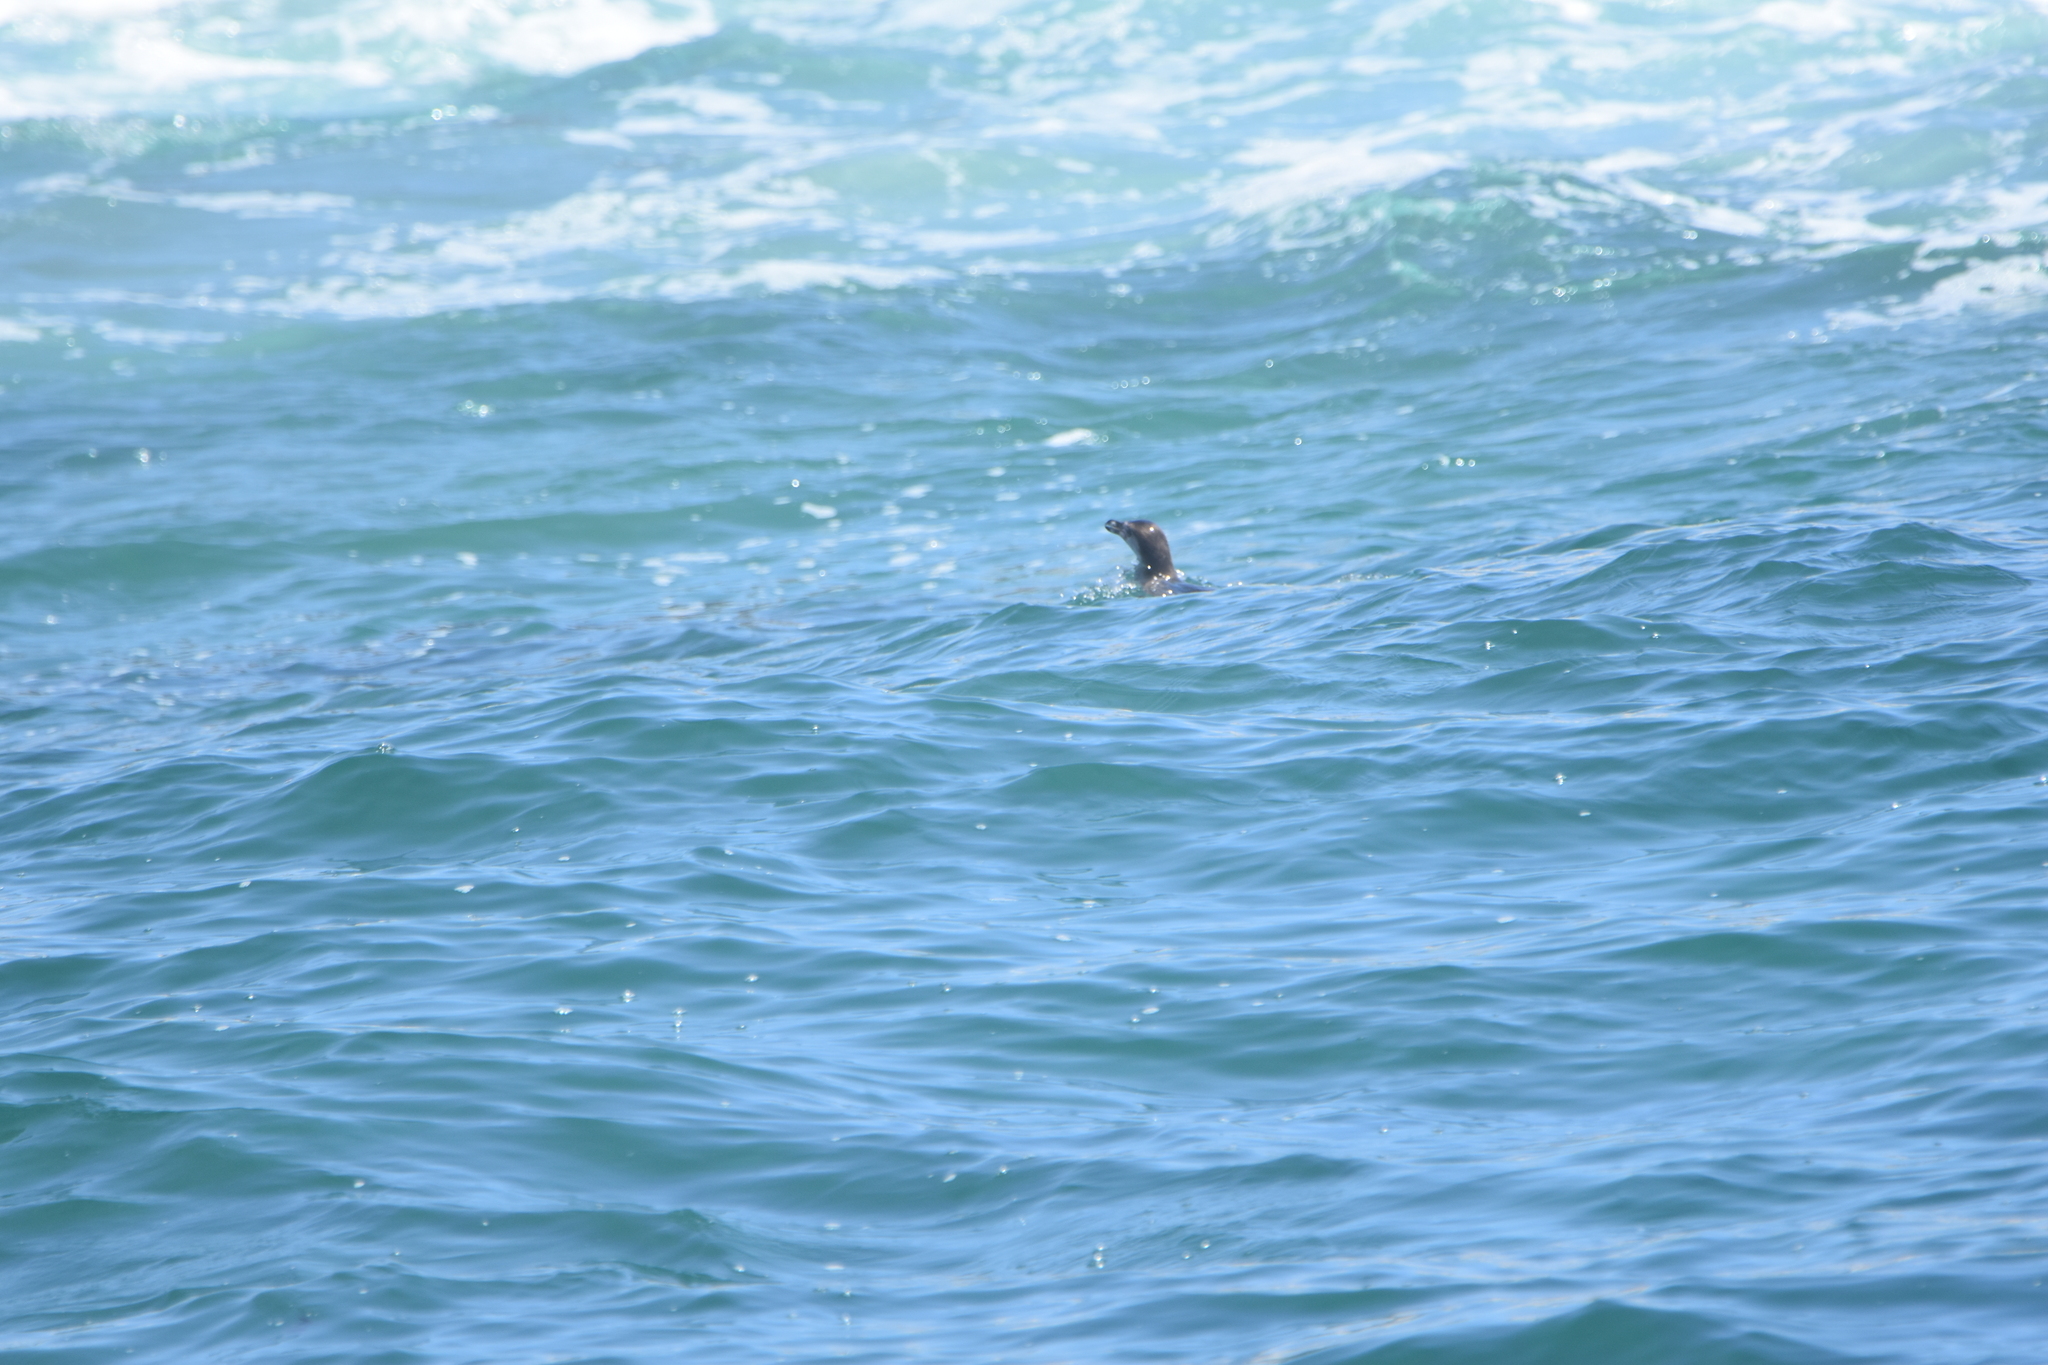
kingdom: Animalia
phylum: Chordata
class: Aves
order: Sphenisciformes
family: Spheniscidae
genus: Spheniscus
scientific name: Spheniscus humboldti
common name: Humboldt penguin
